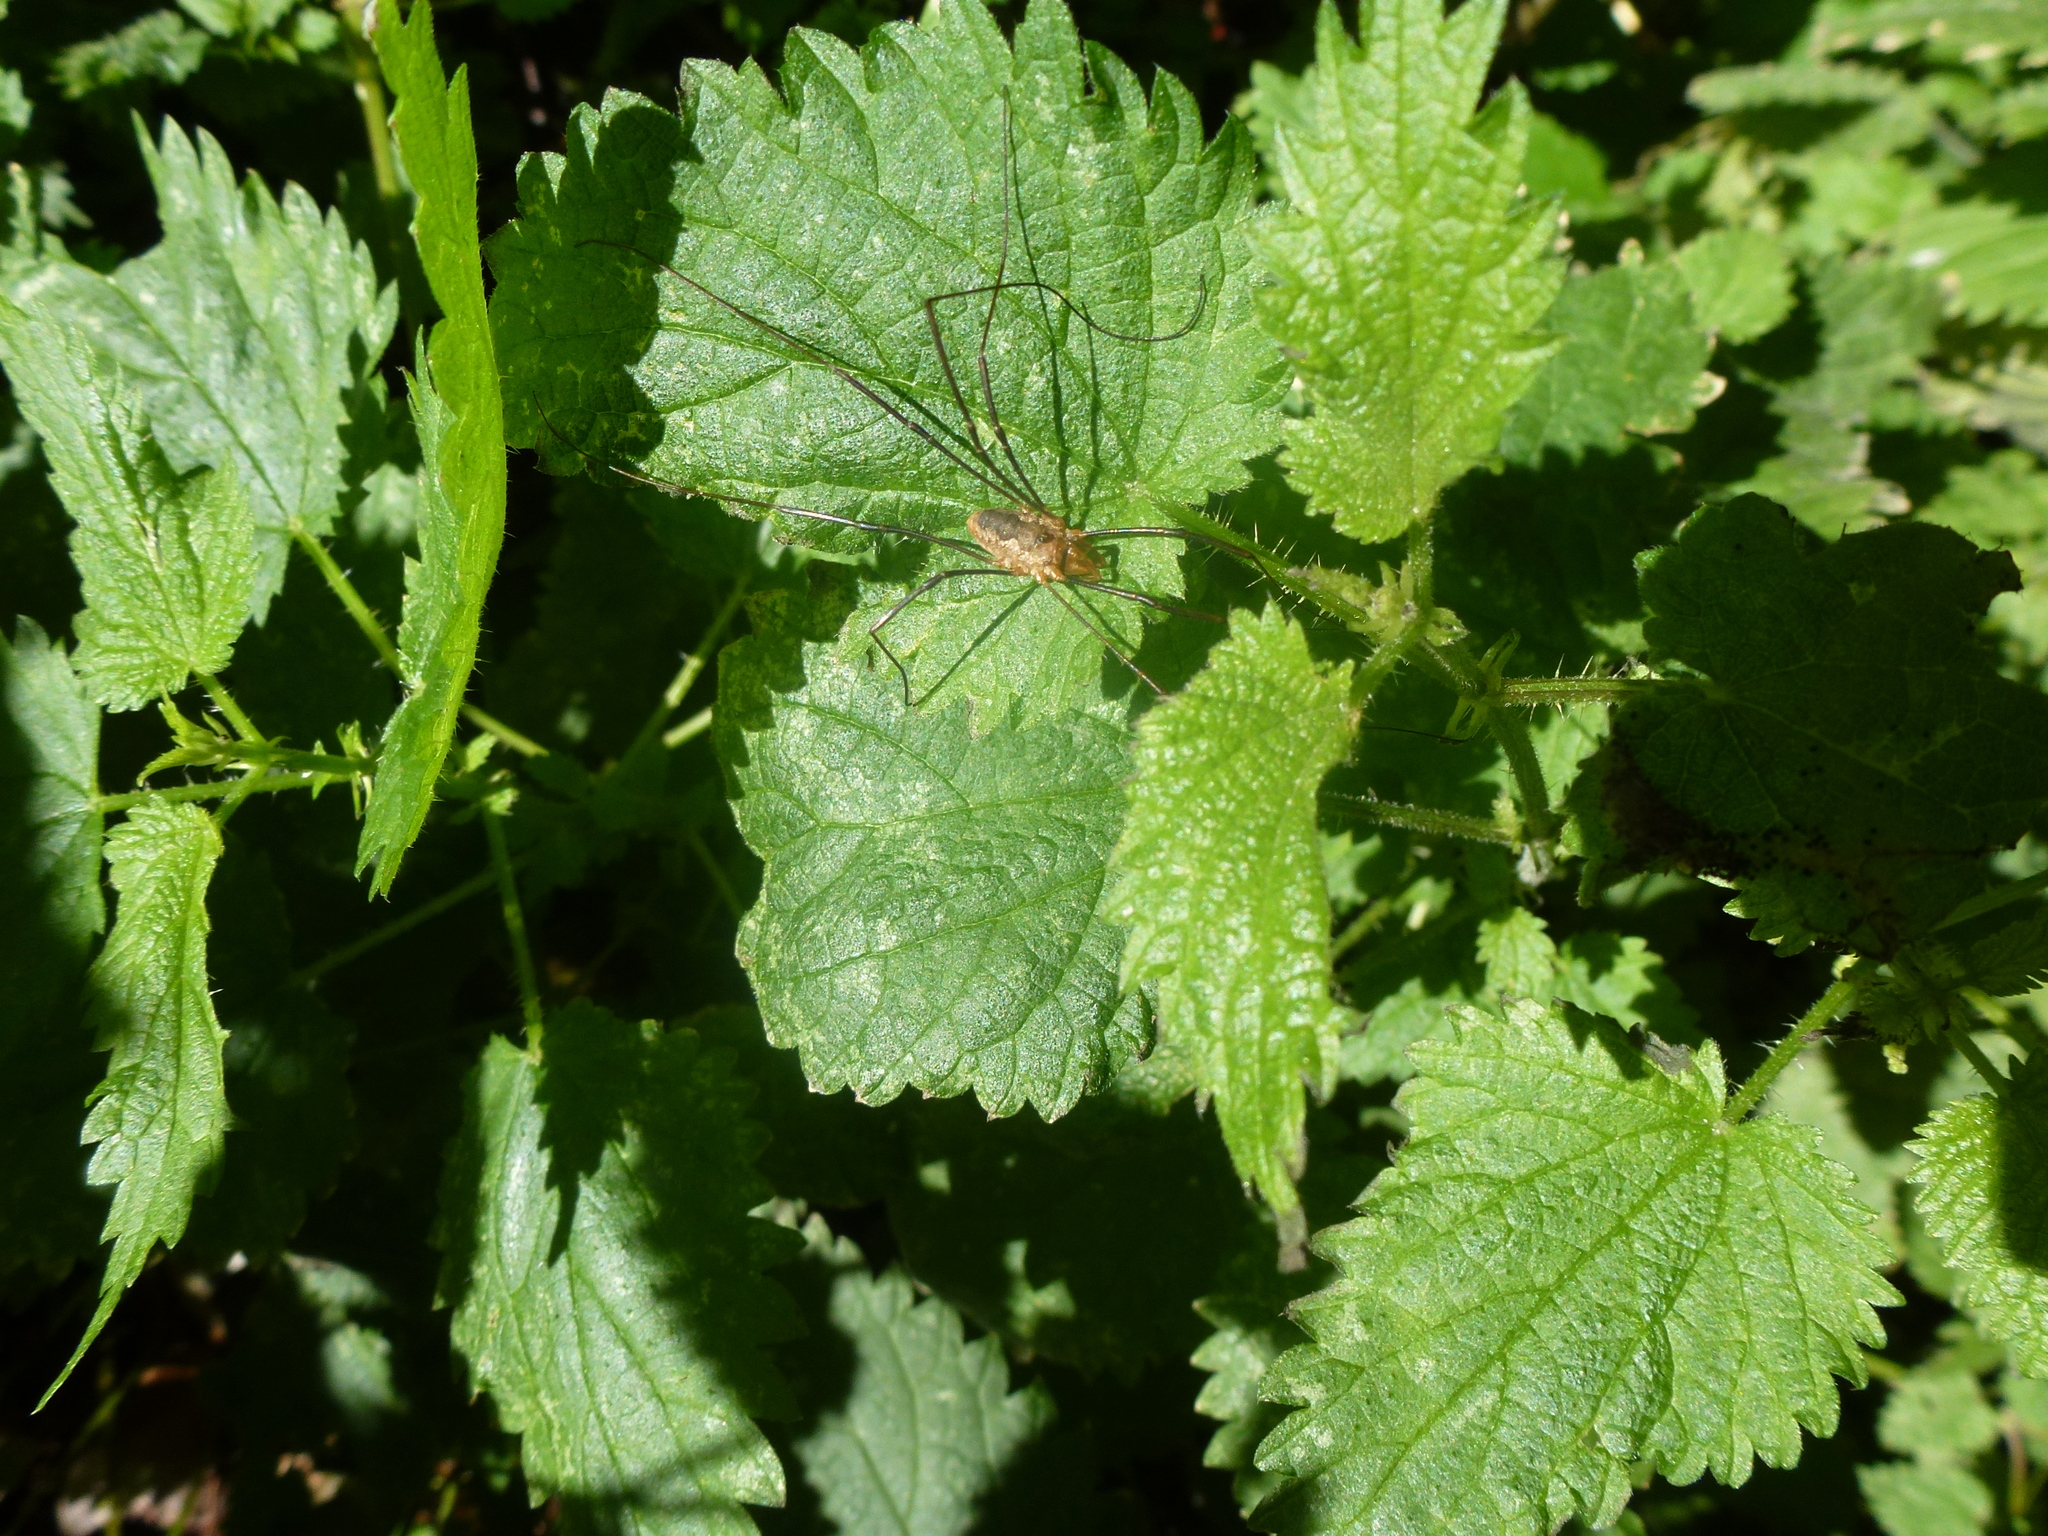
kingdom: Animalia
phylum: Arthropoda
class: Arachnida
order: Opiliones
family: Phalangiidae
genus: Phalangium
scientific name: Phalangium opilio
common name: Daddy longleg
